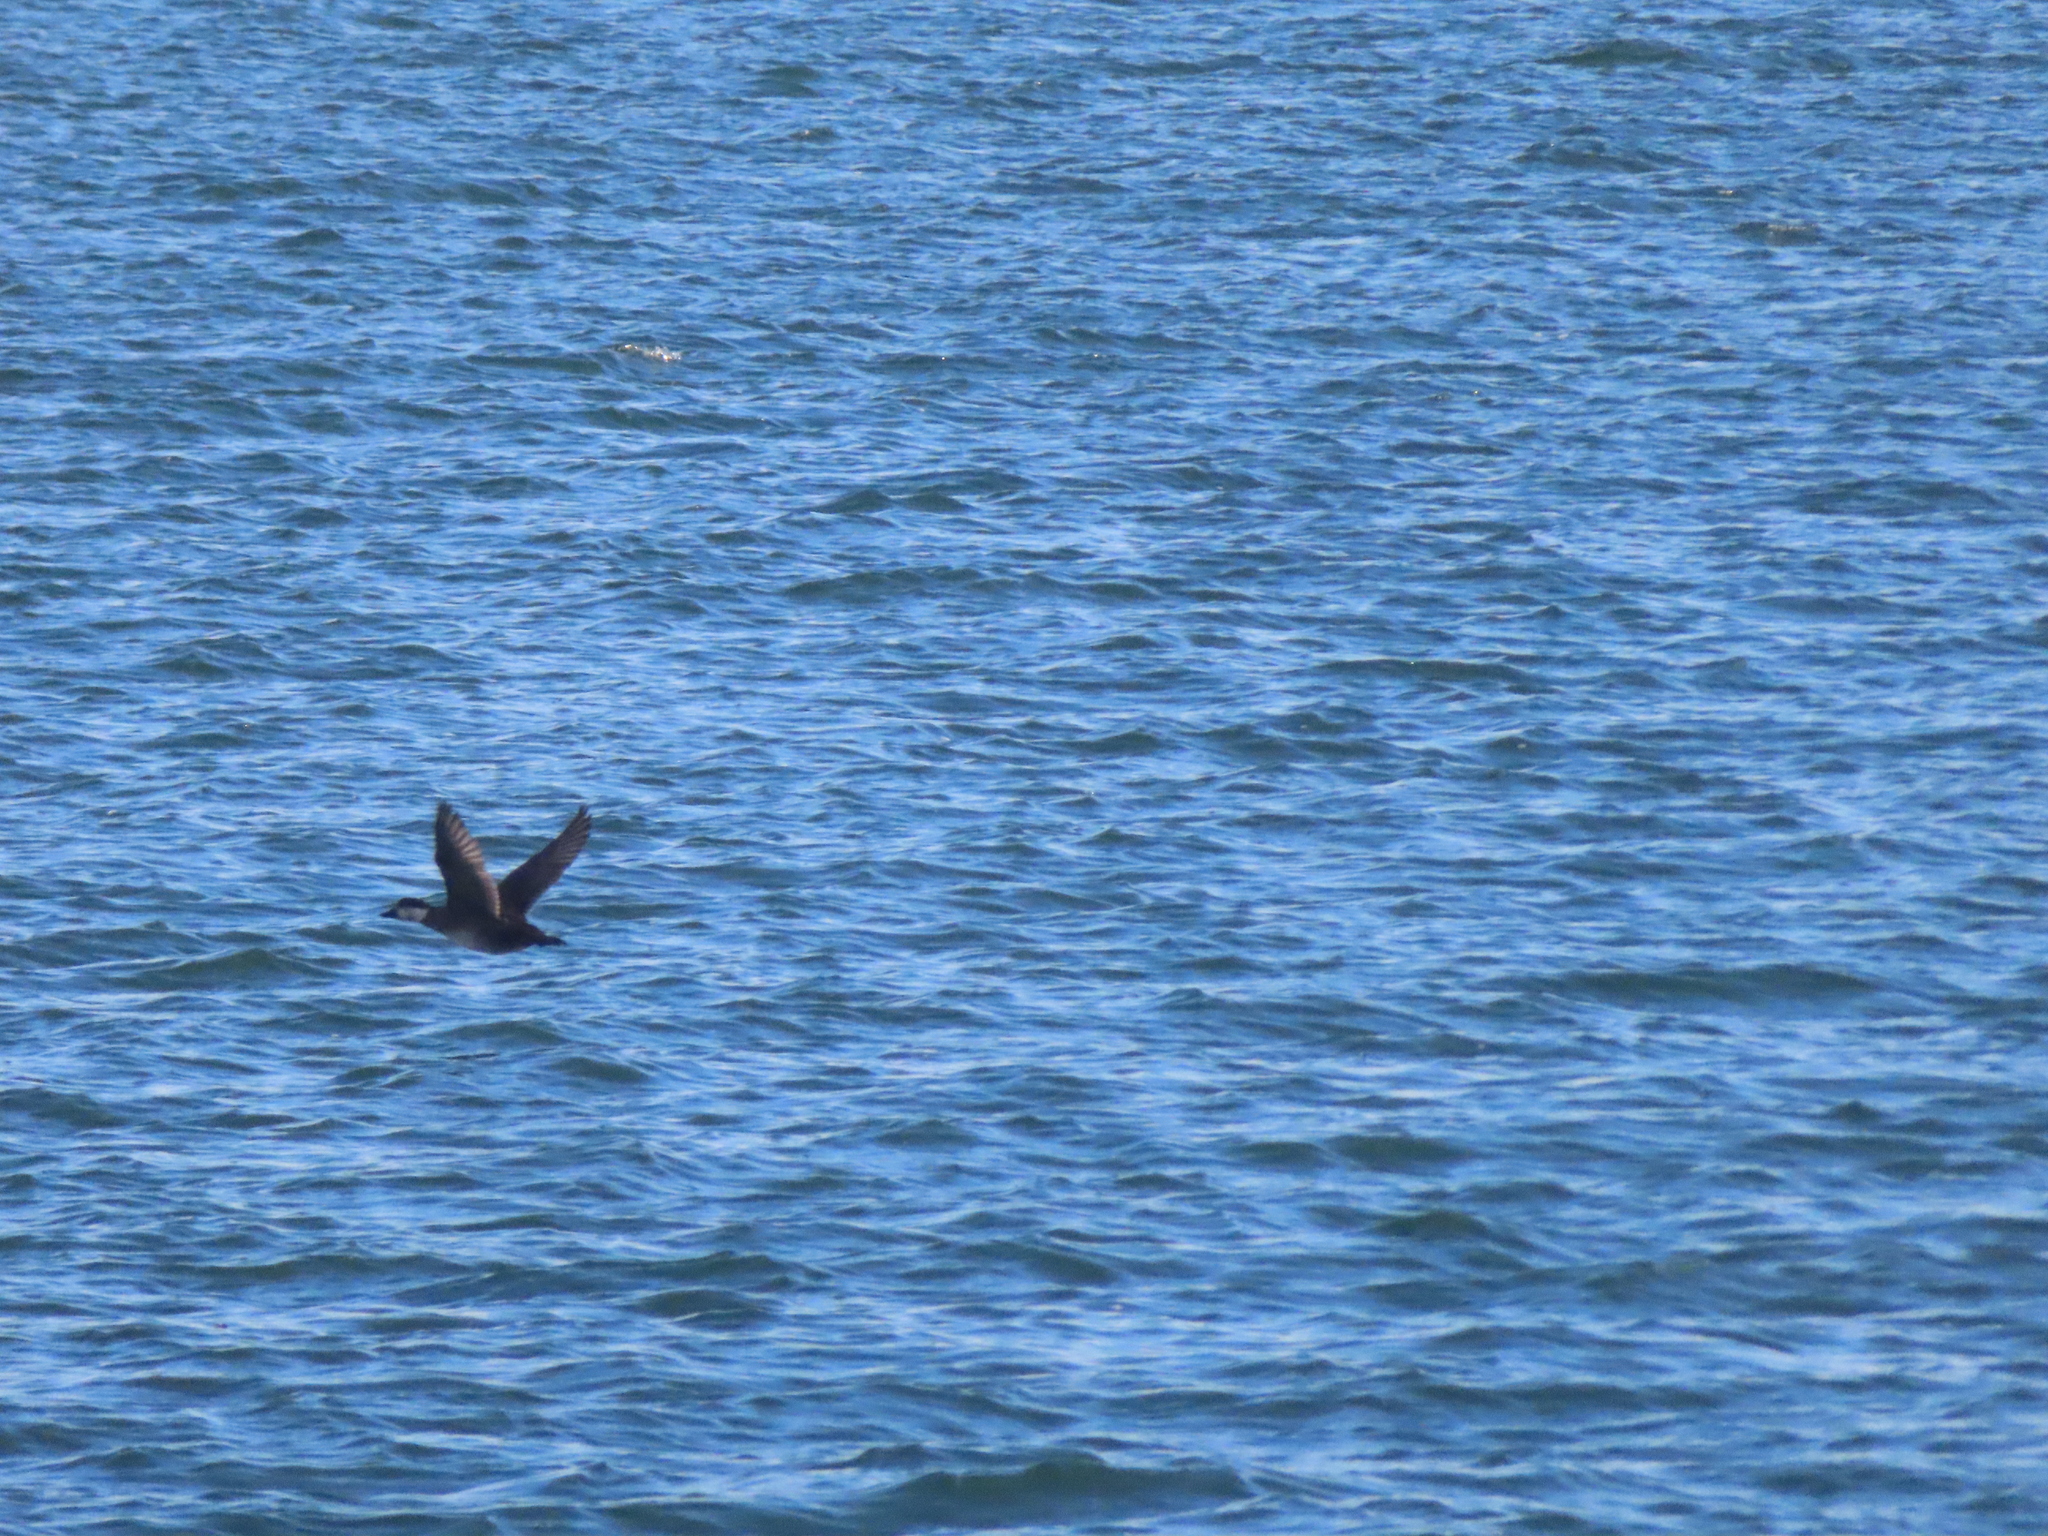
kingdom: Animalia
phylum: Chordata
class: Aves
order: Anseriformes
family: Anatidae
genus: Melanitta
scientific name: Melanitta americana
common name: Black scoter
